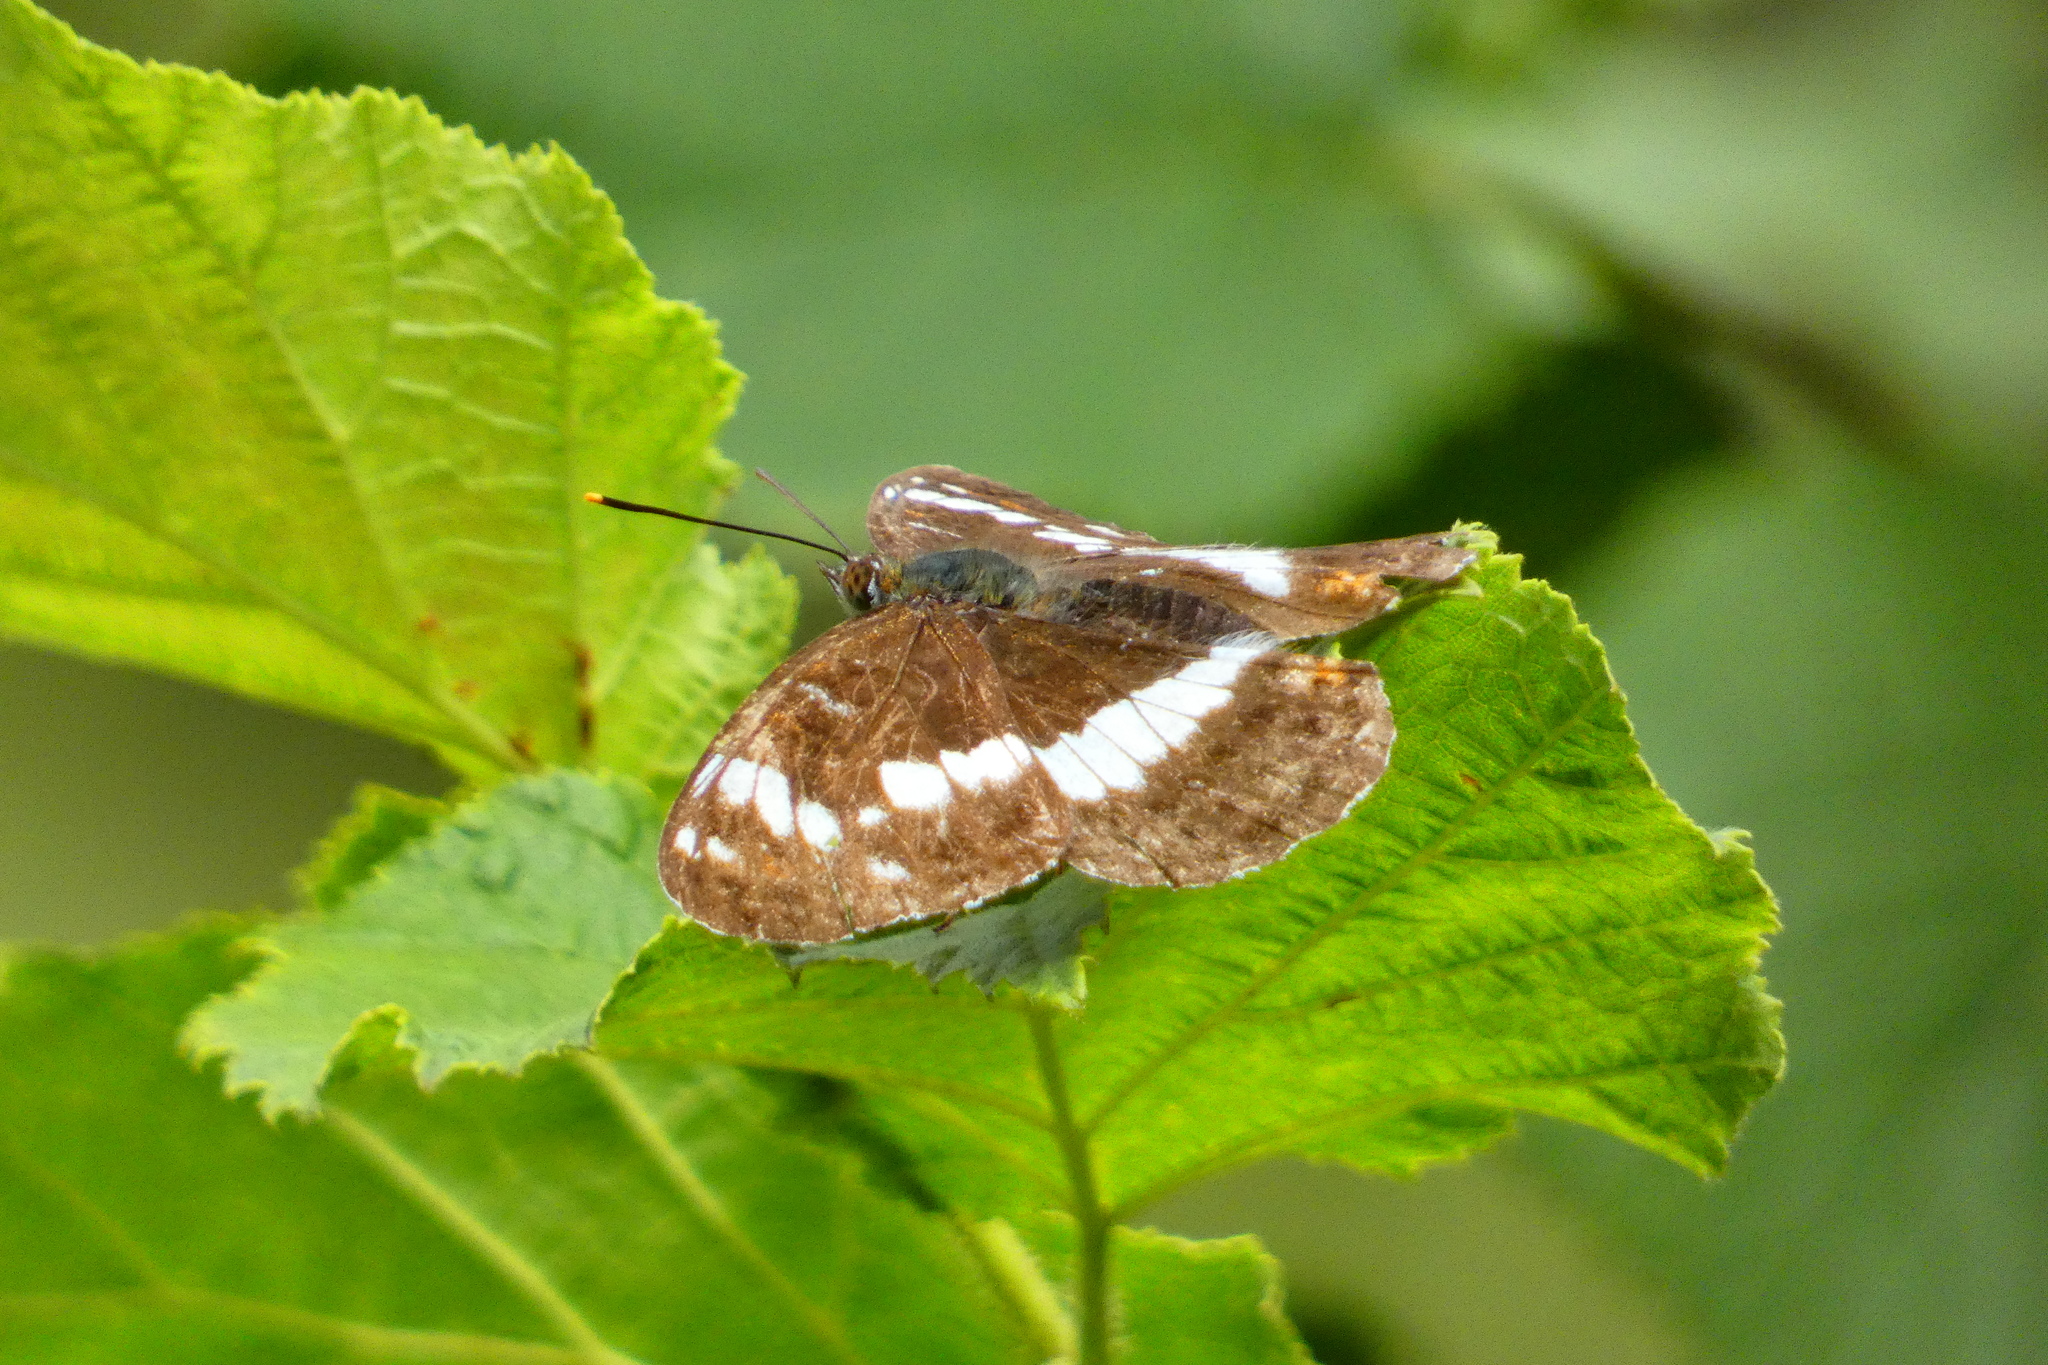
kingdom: Animalia
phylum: Arthropoda
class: Insecta
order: Lepidoptera
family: Nymphalidae
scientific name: Nymphalidae
